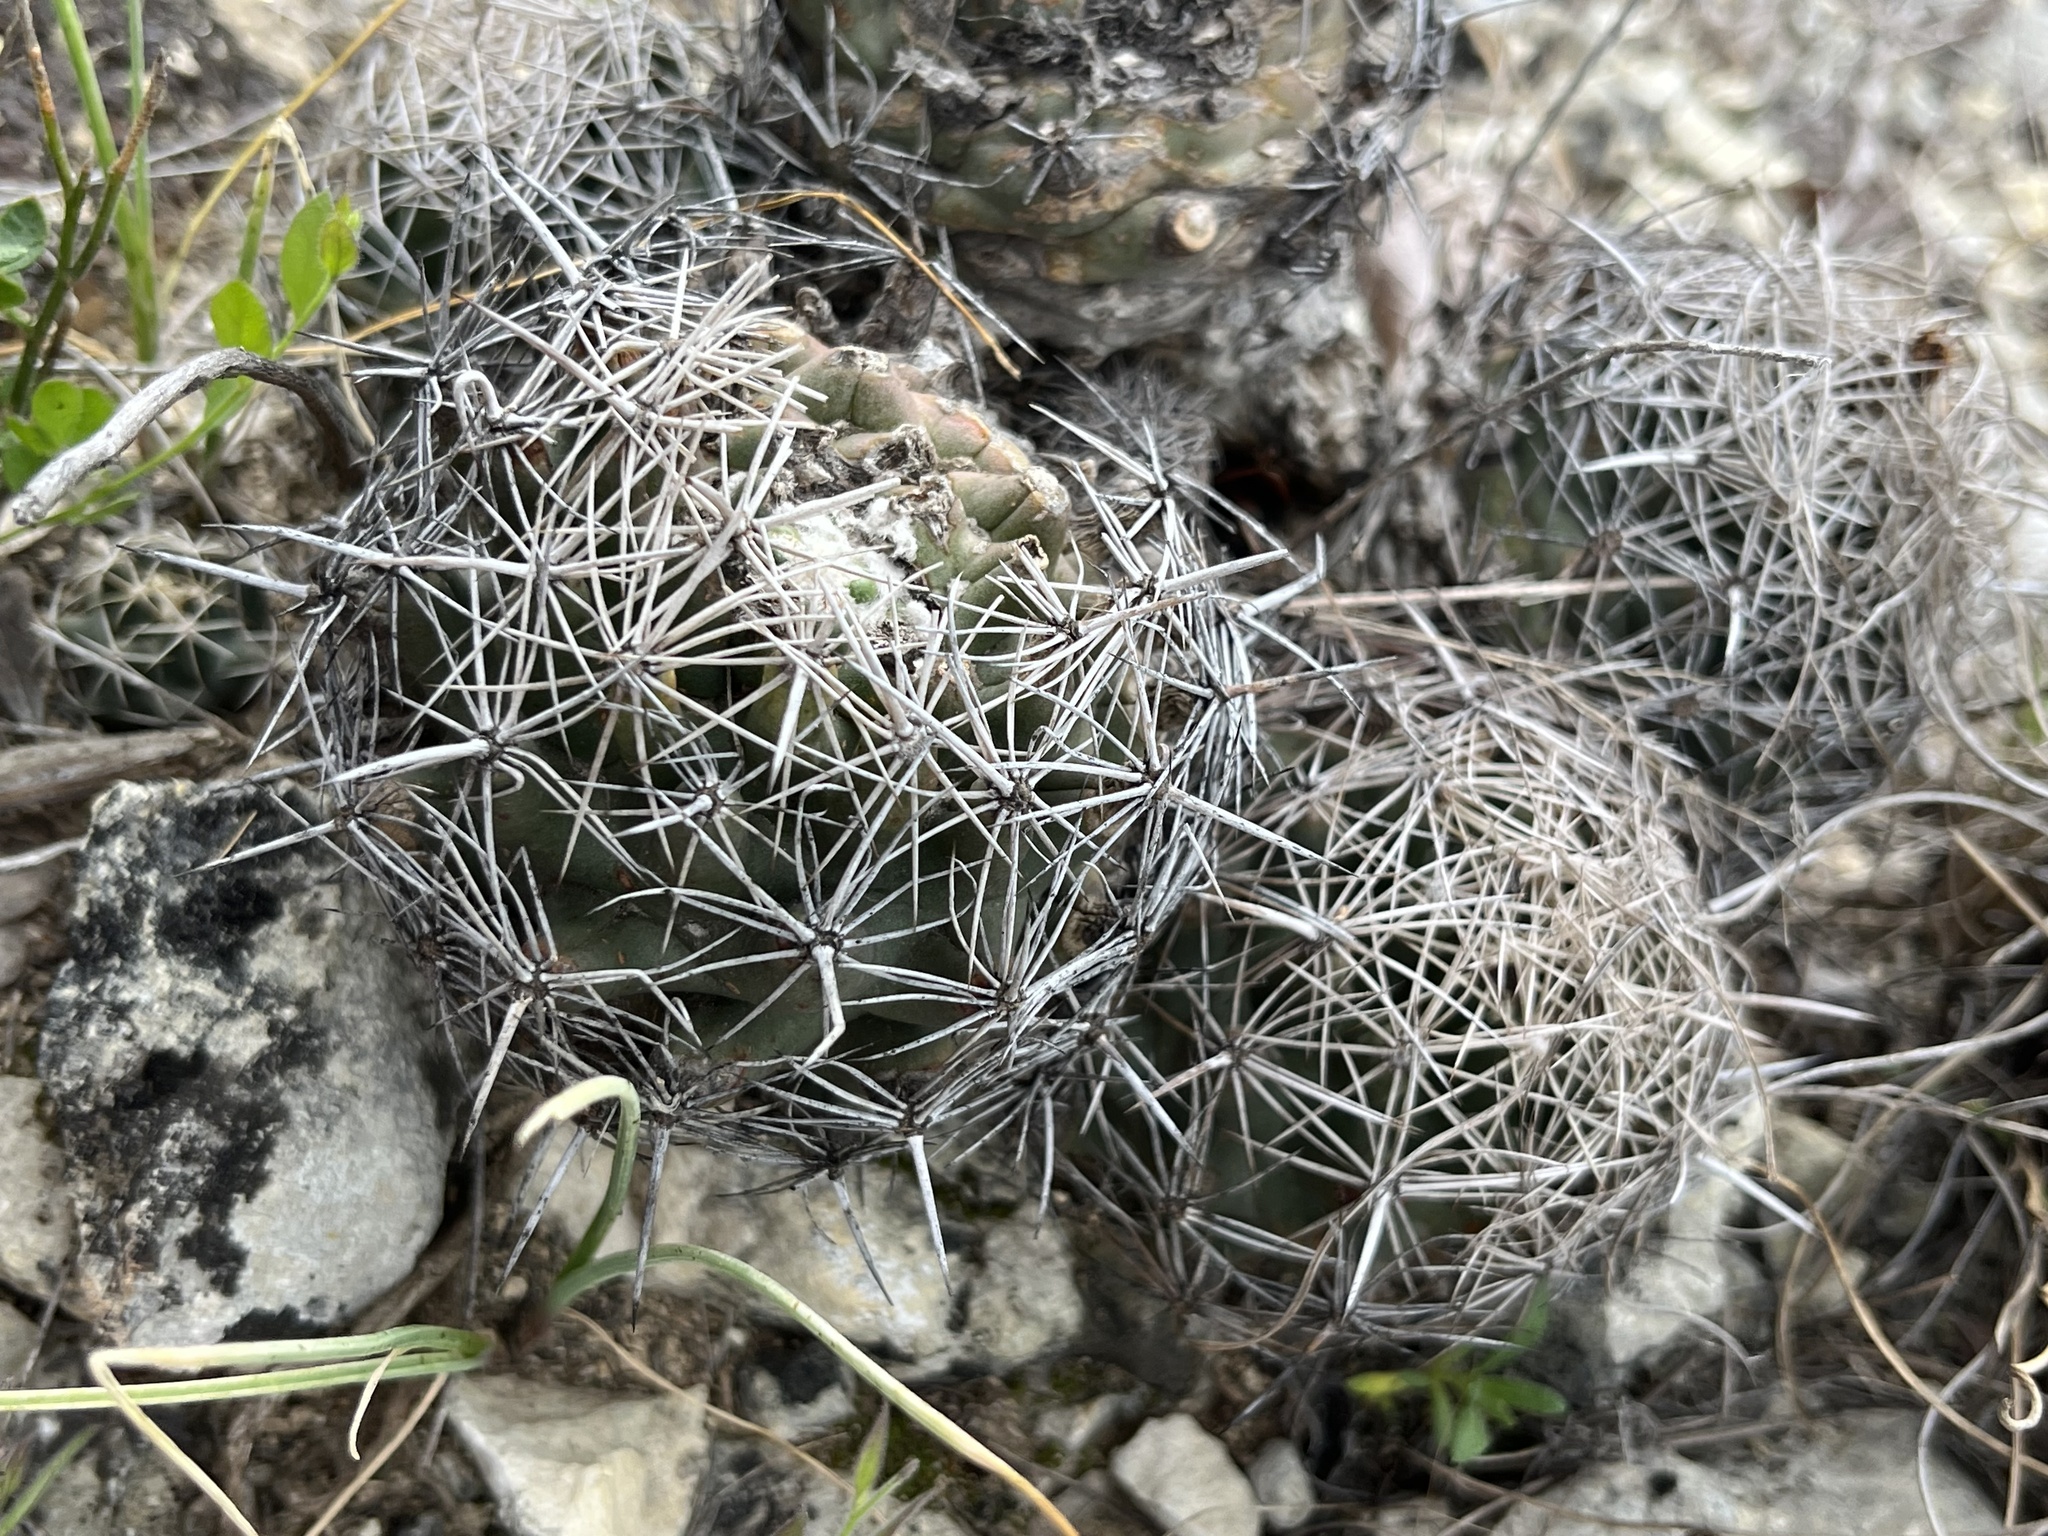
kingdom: Plantae
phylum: Tracheophyta
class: Magnoliopsida
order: Caryophyllales
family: Cactaceae
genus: Coryphantha
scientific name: Coryphantha sulcata
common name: Finger cactus
